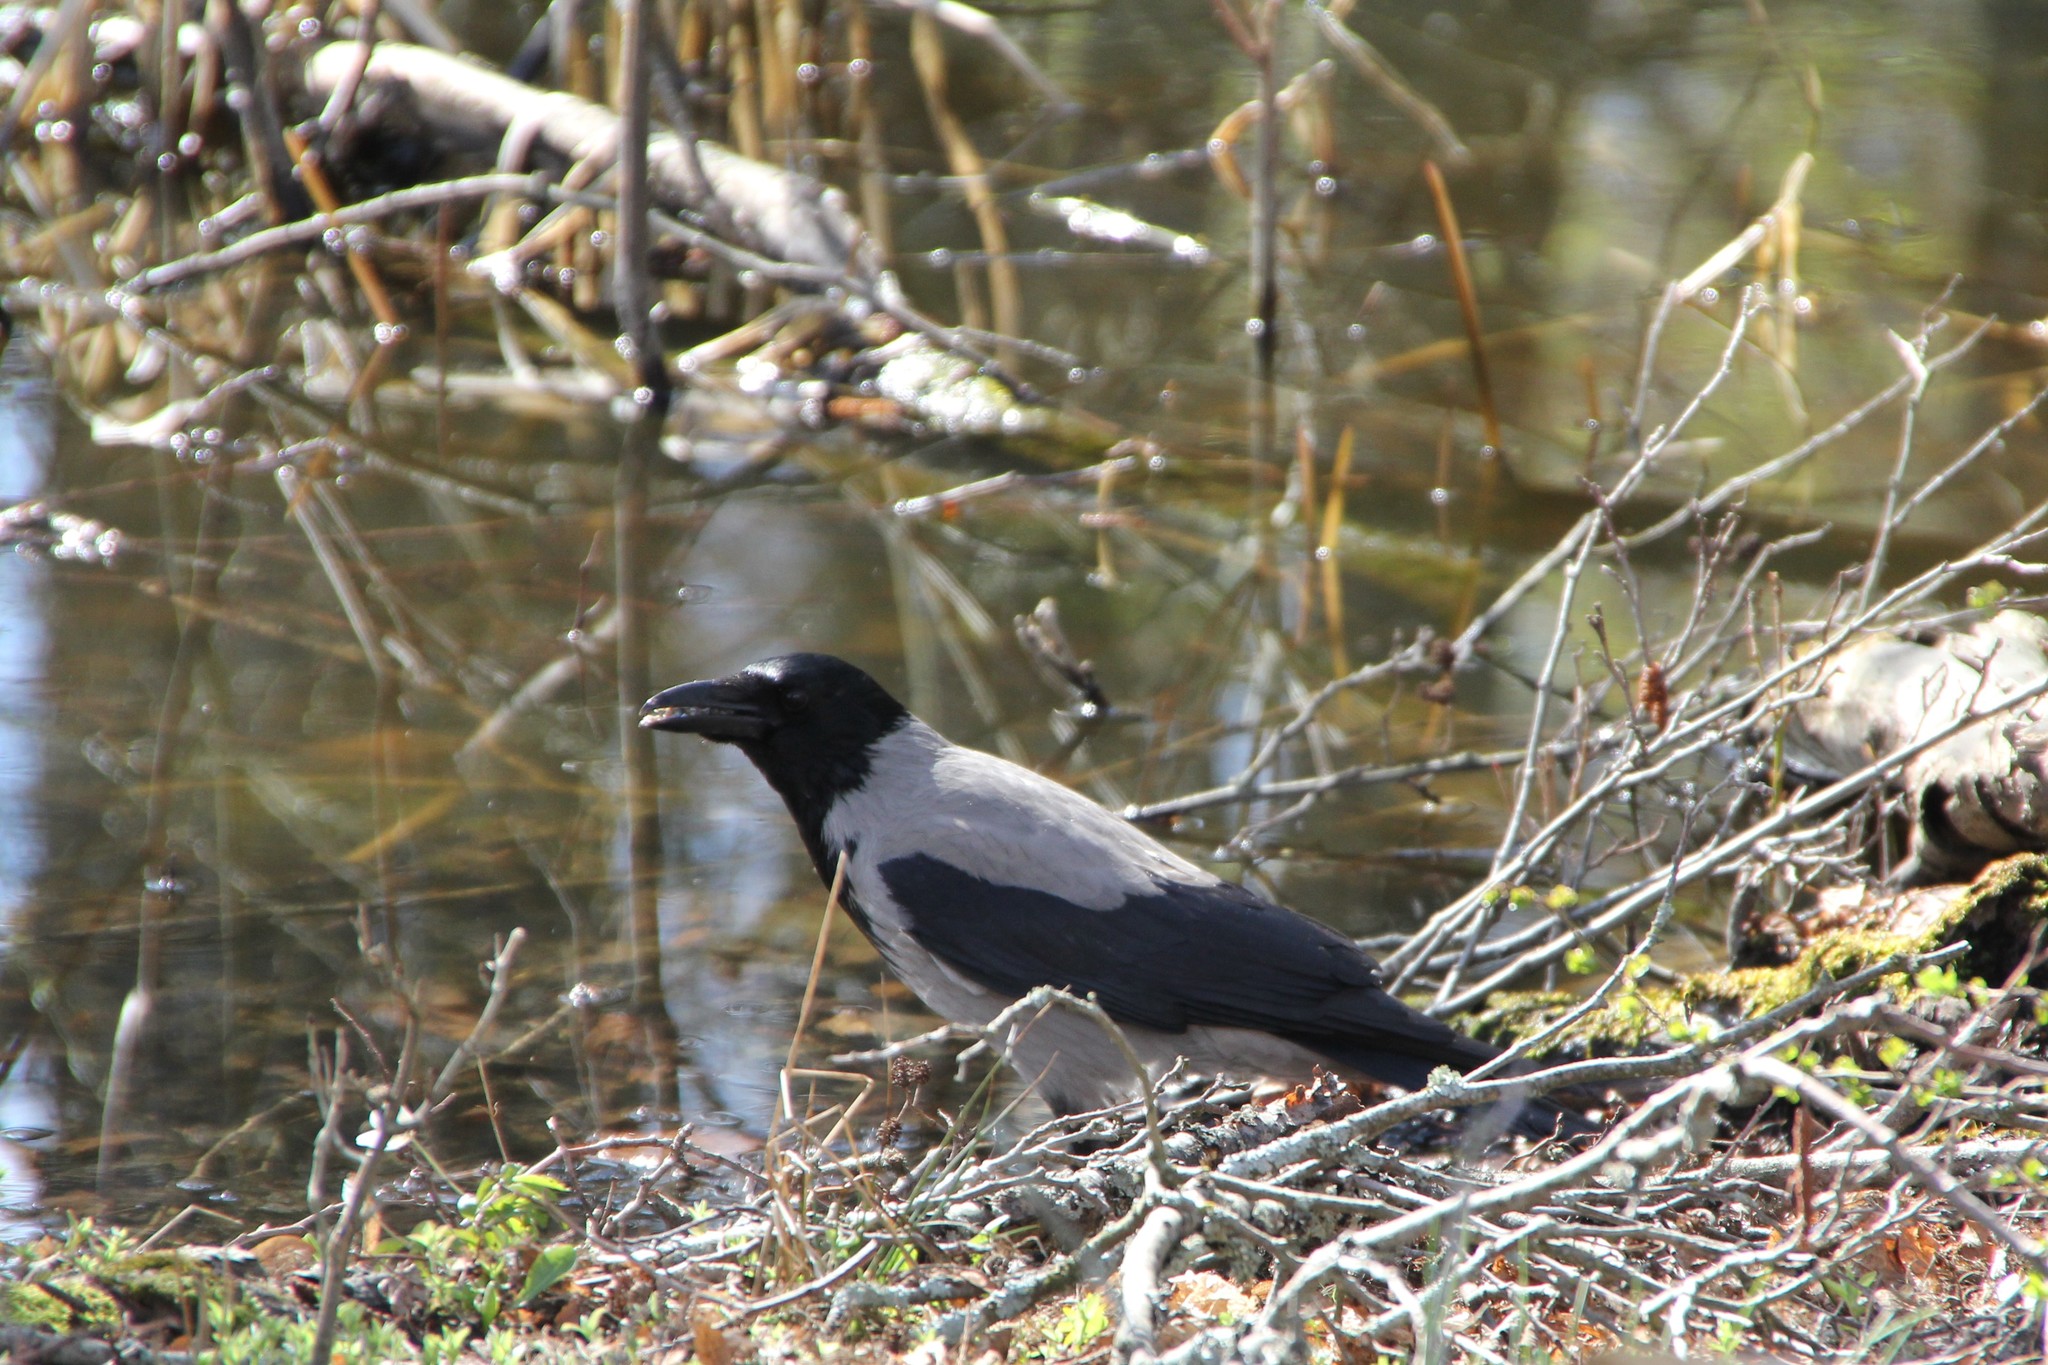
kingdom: Animalia
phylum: Chordata
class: Aves
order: Passeriformes
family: Corvidae
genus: Corvus
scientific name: Corvus cornix
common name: Hooded crow
